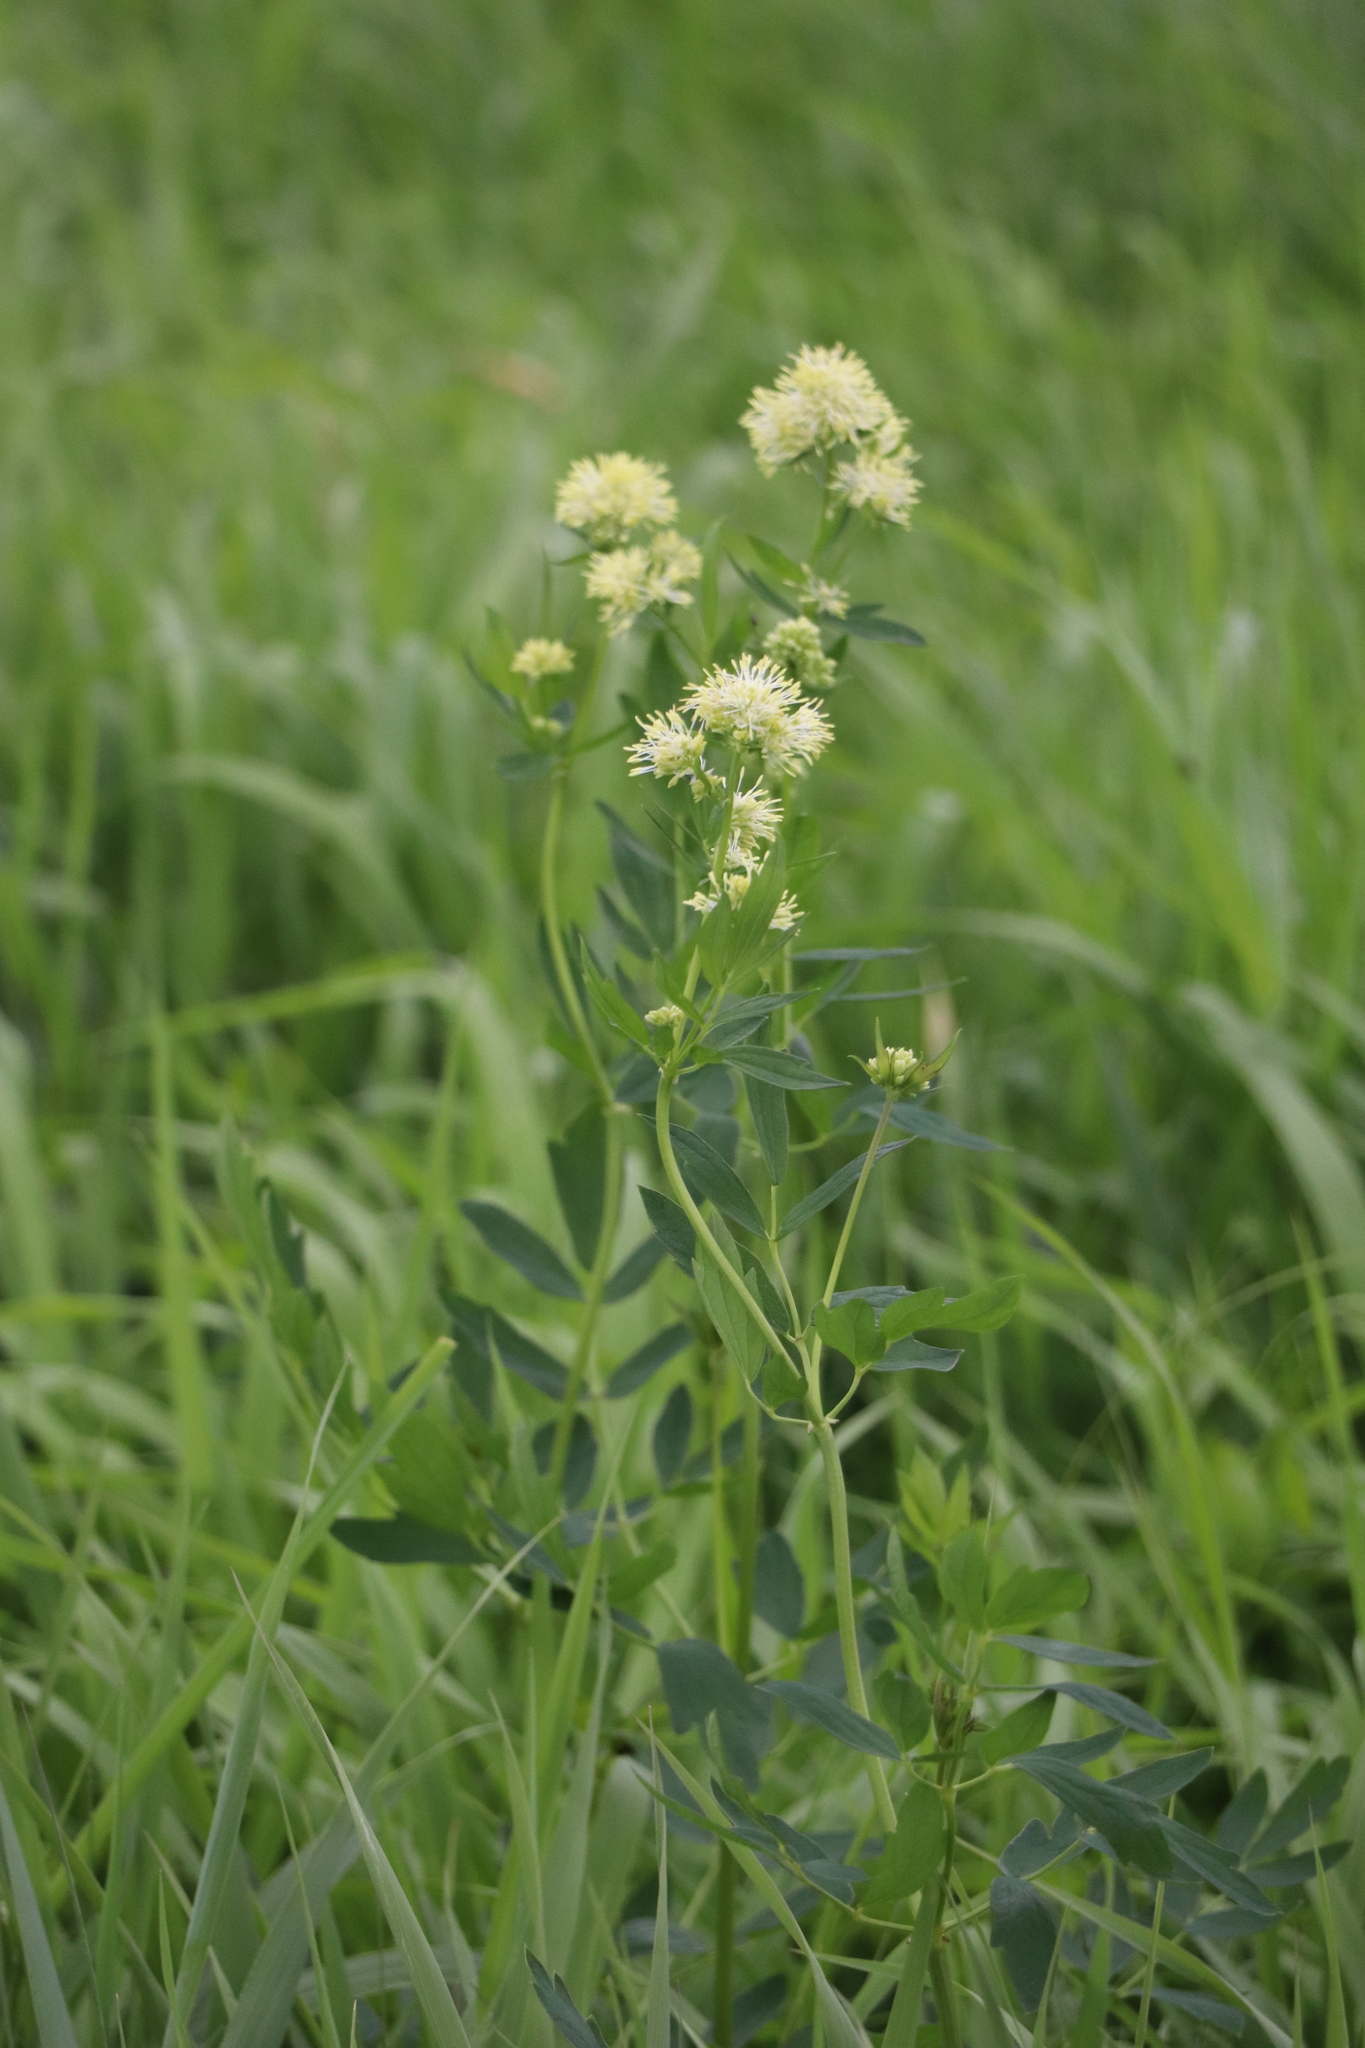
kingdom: Plantae
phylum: Tracheophyta
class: Magnoliopsida
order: Ranunculales
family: Ranunculaceae
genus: Thalictrum
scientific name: Thalictrum flavum
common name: Common meadow-rue
